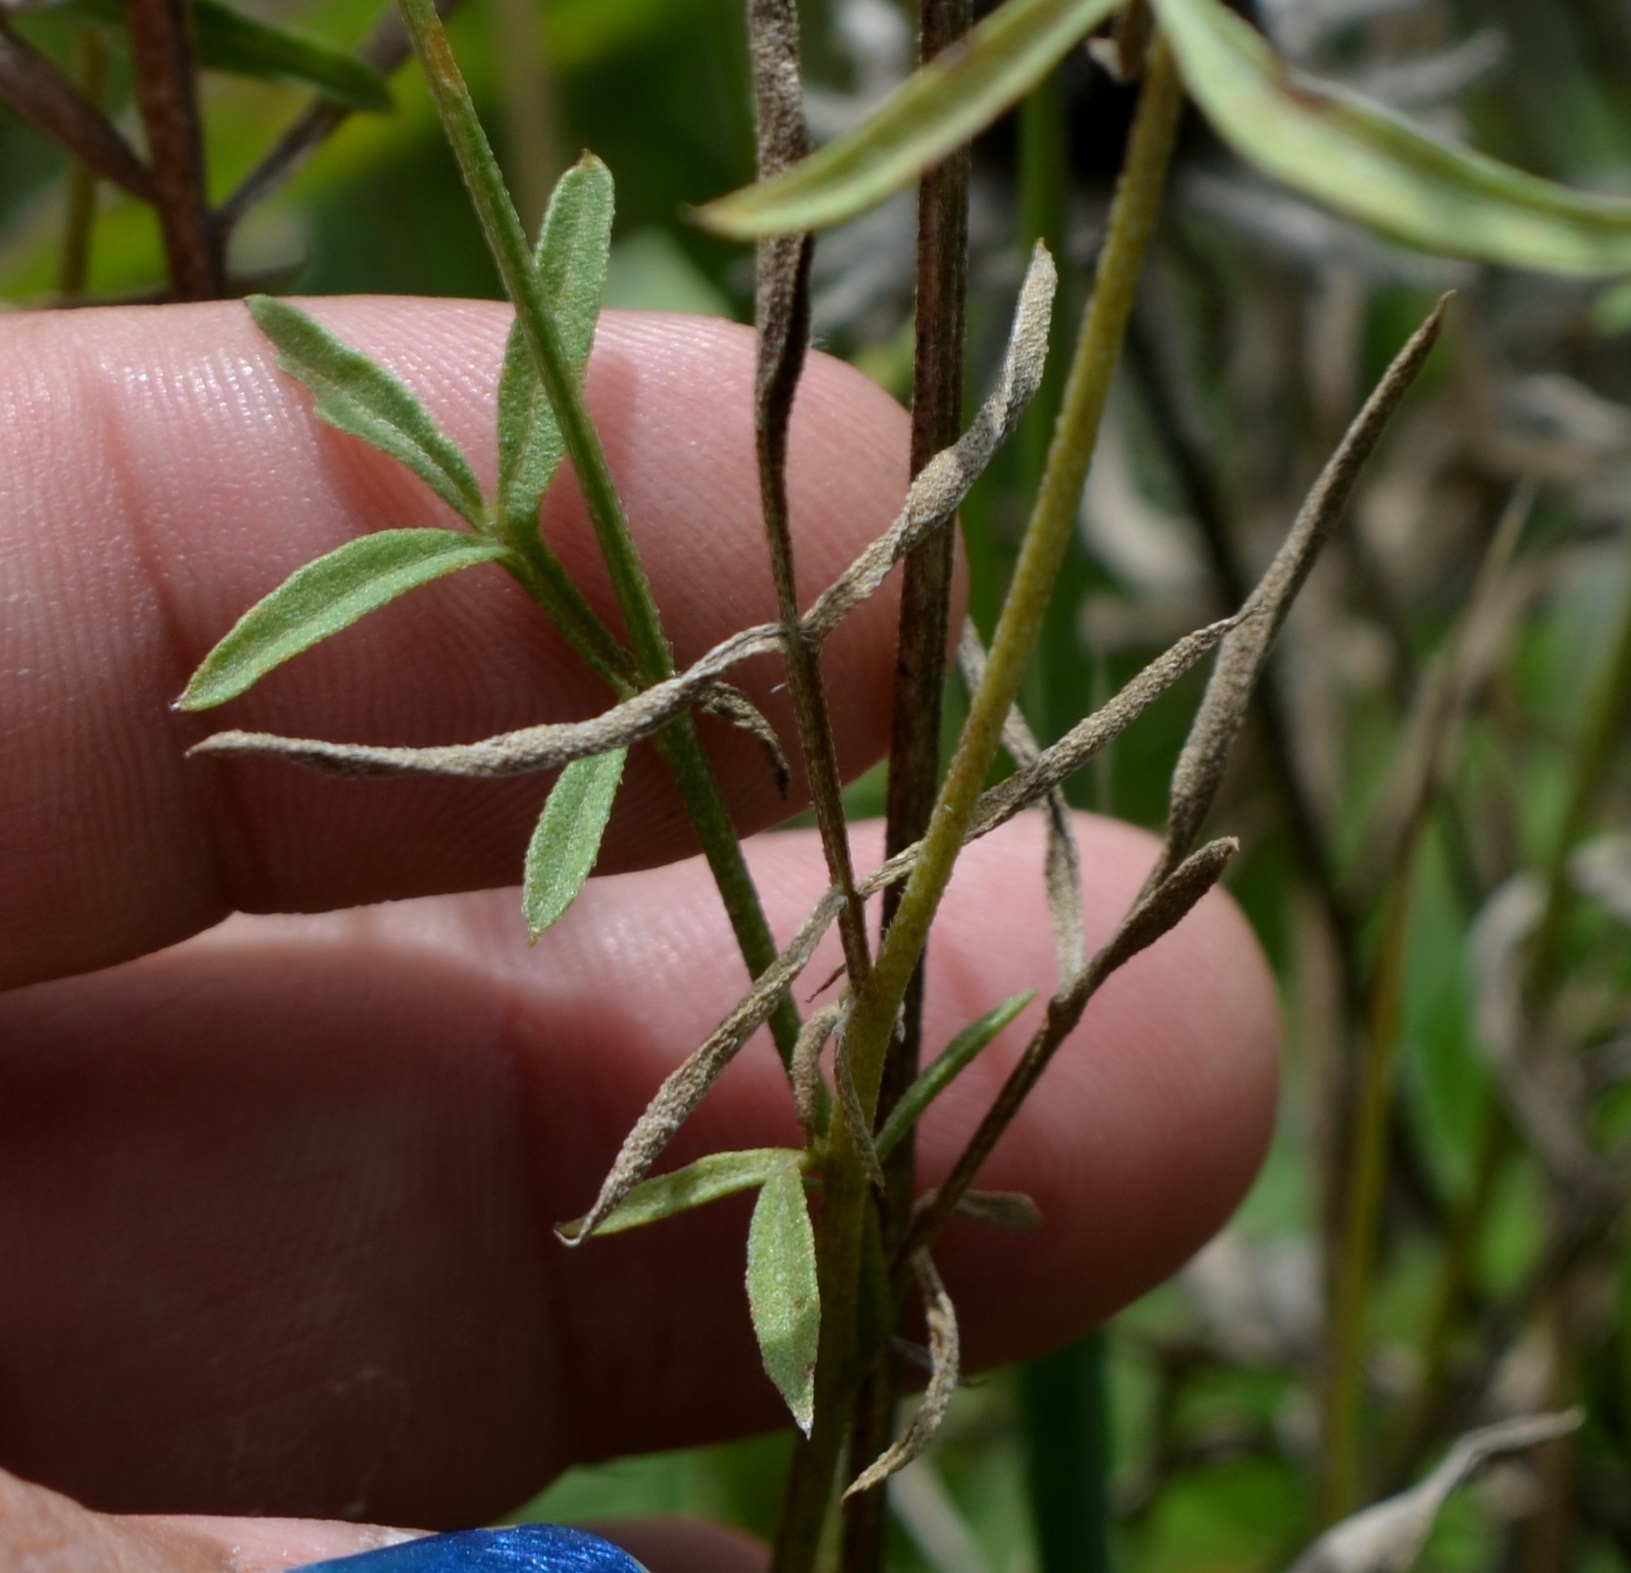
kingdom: Plantae
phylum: Tracheophyta
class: Magnoliopsida
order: Asterales
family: Asteraceae
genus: Ratibida
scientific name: Ratibida columnifera
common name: Prairie coneflower
